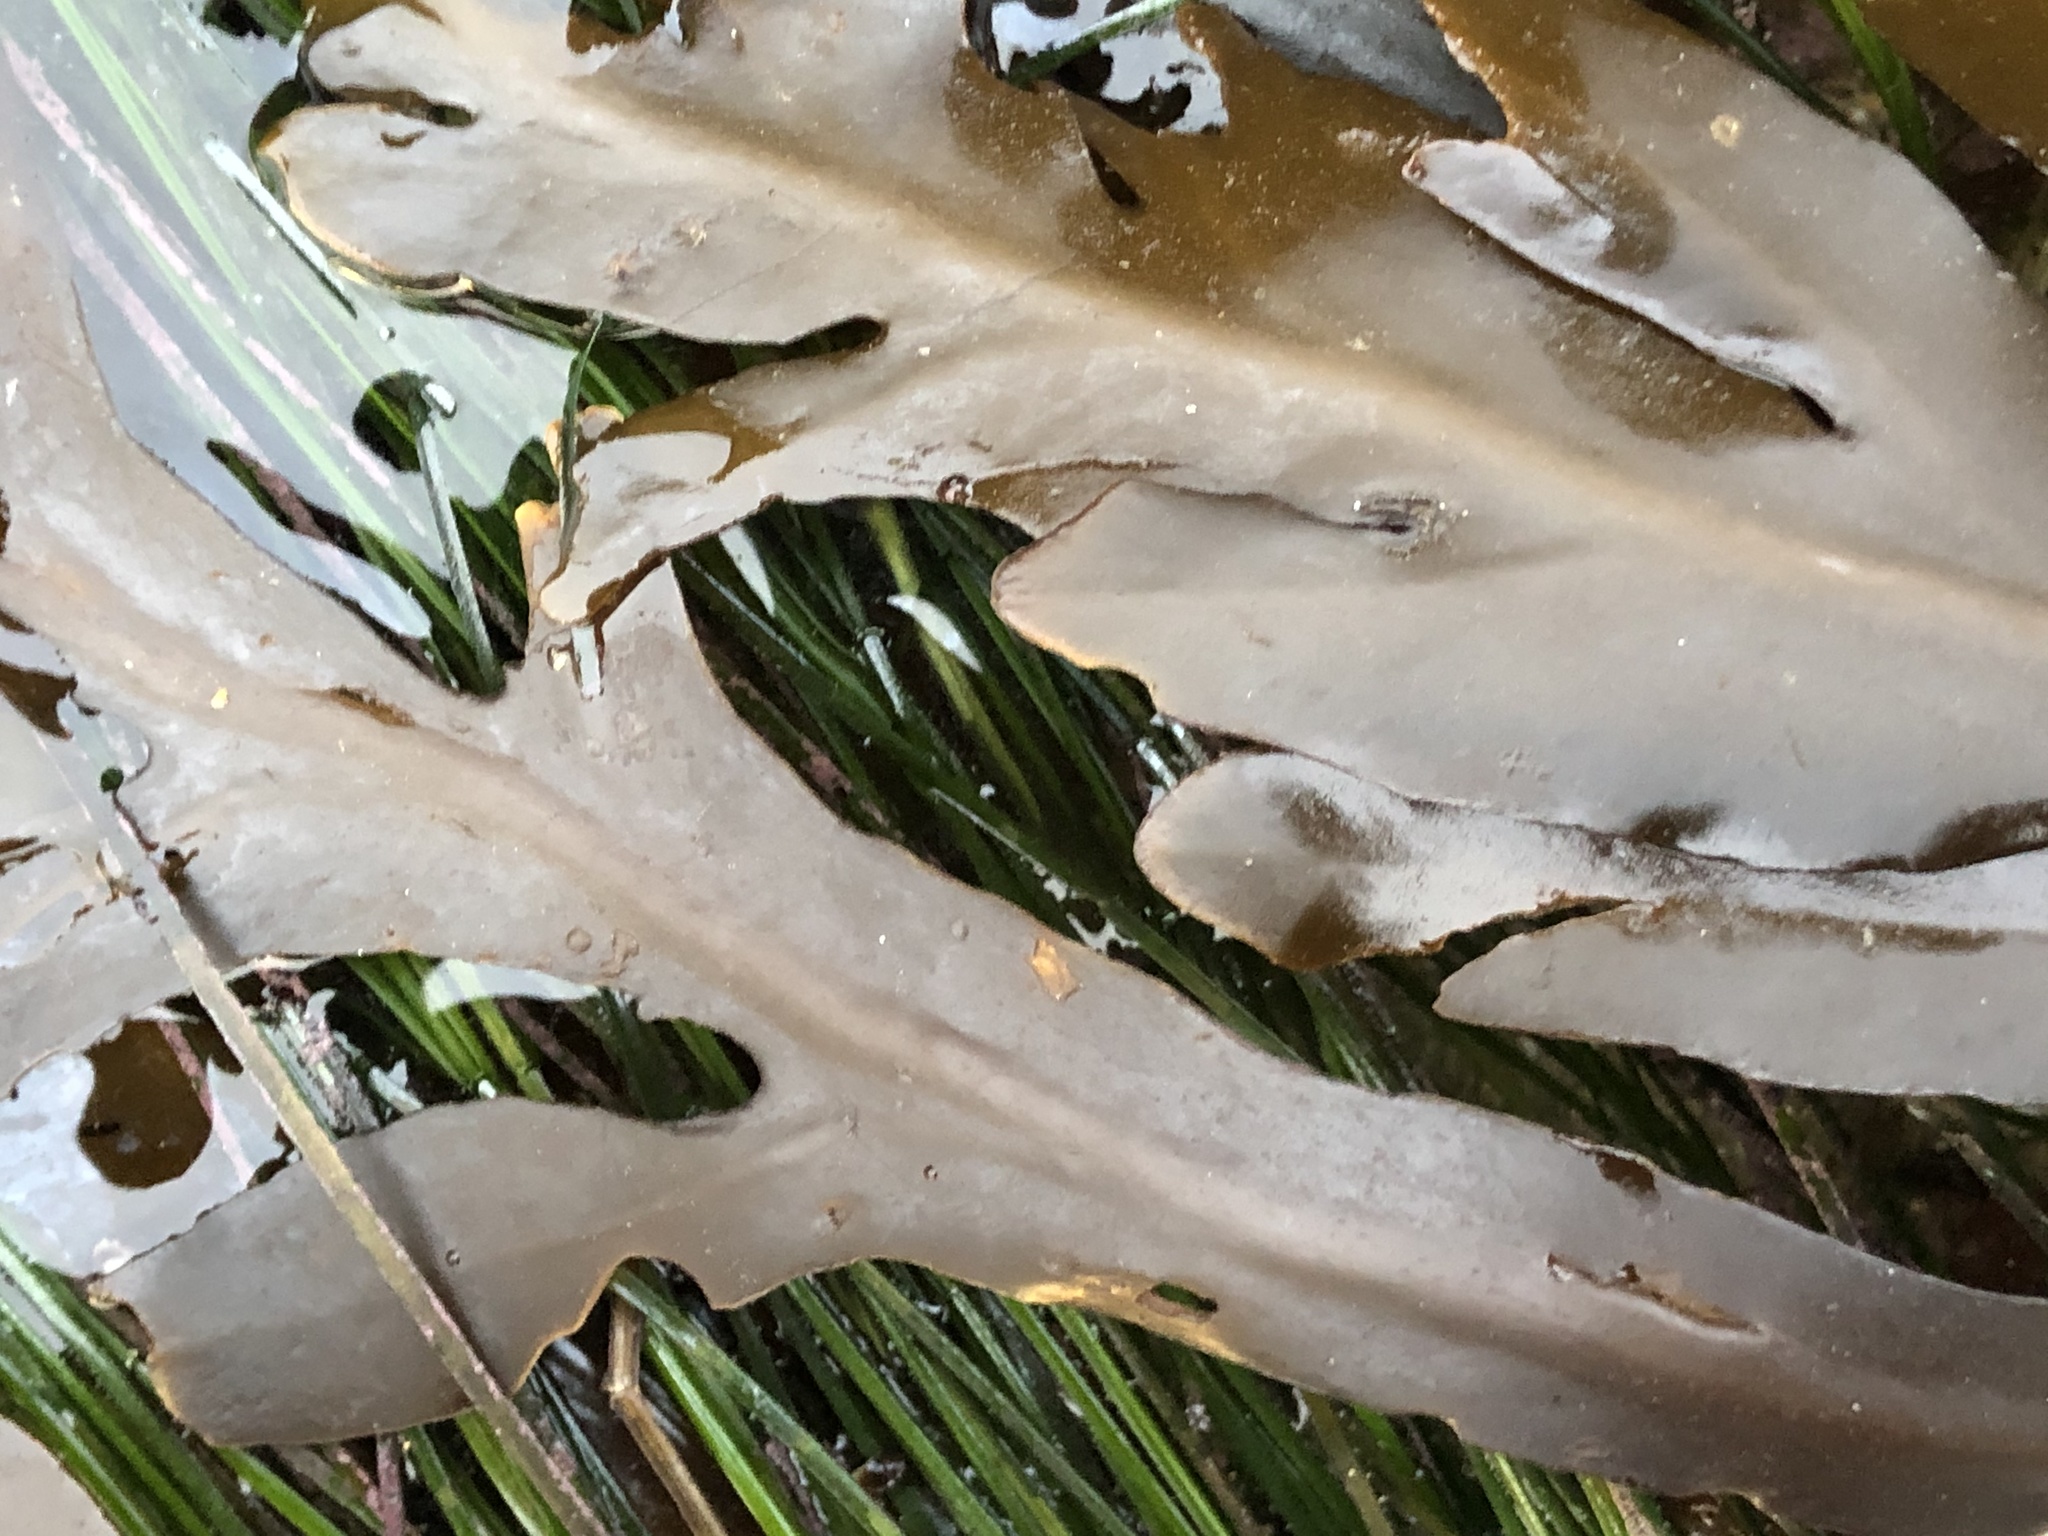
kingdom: Chromista
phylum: Ochrophyta
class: Phaeophyceae
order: Fucales
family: Sargassaceae
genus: Stephanocystis
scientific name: Stephanocystis
